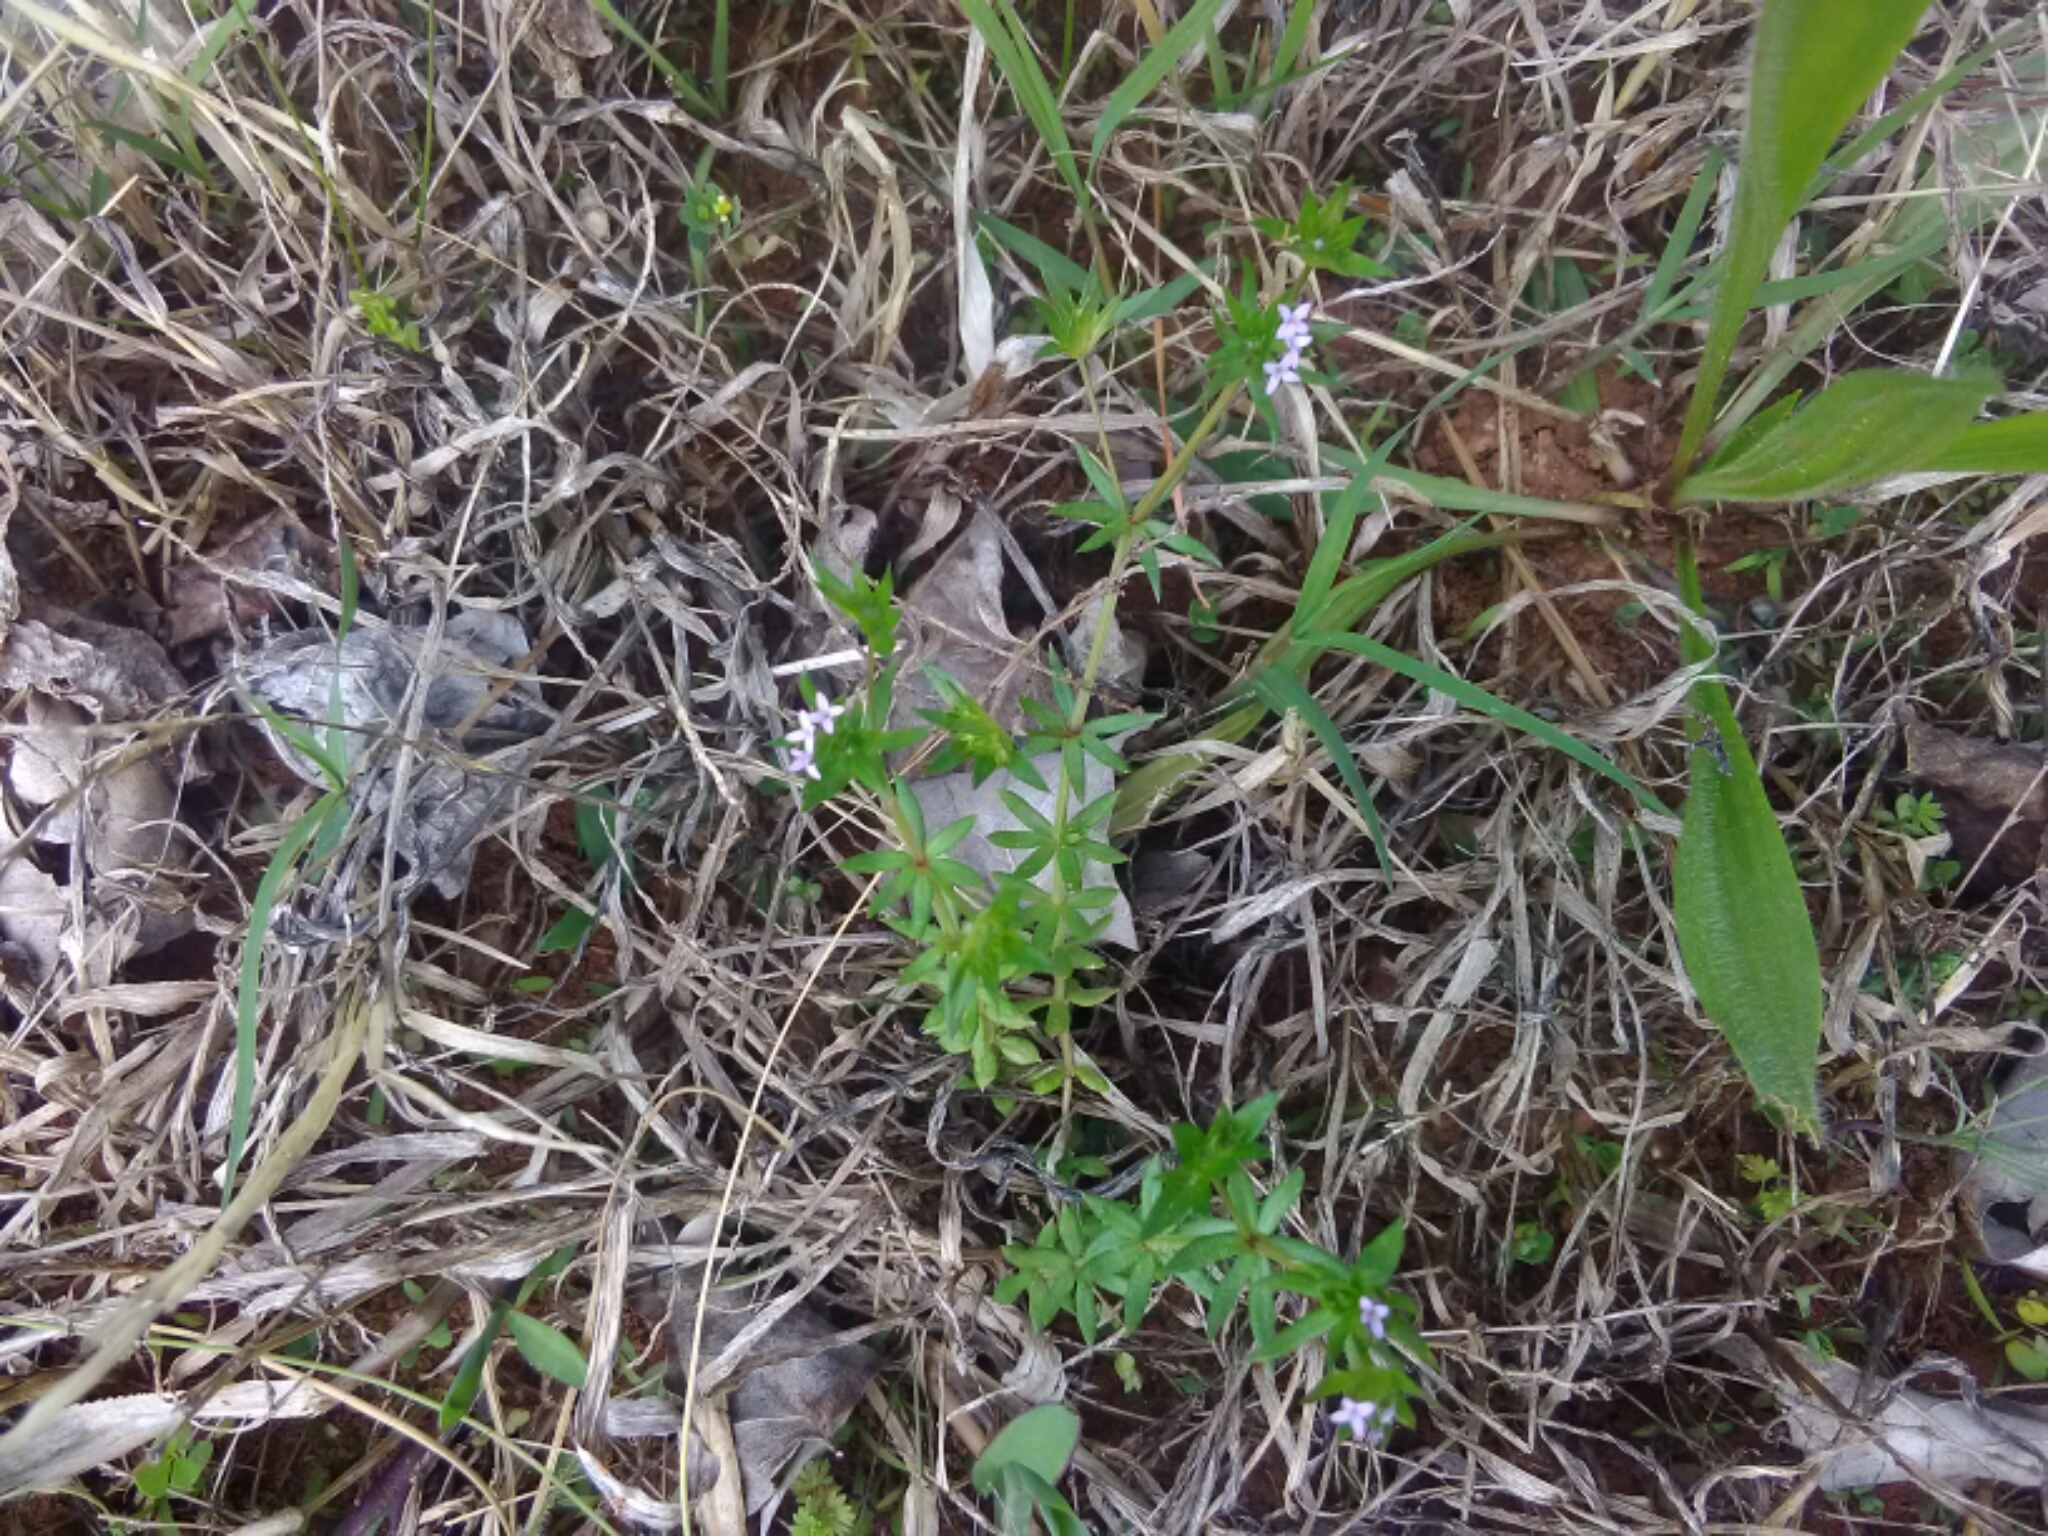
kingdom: Plantae
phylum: Tracheophyta
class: Magnoliopsida
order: Gentianales
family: Rubiaceae
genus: Sherardia
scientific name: Sherardia arvensis
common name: Field madder
